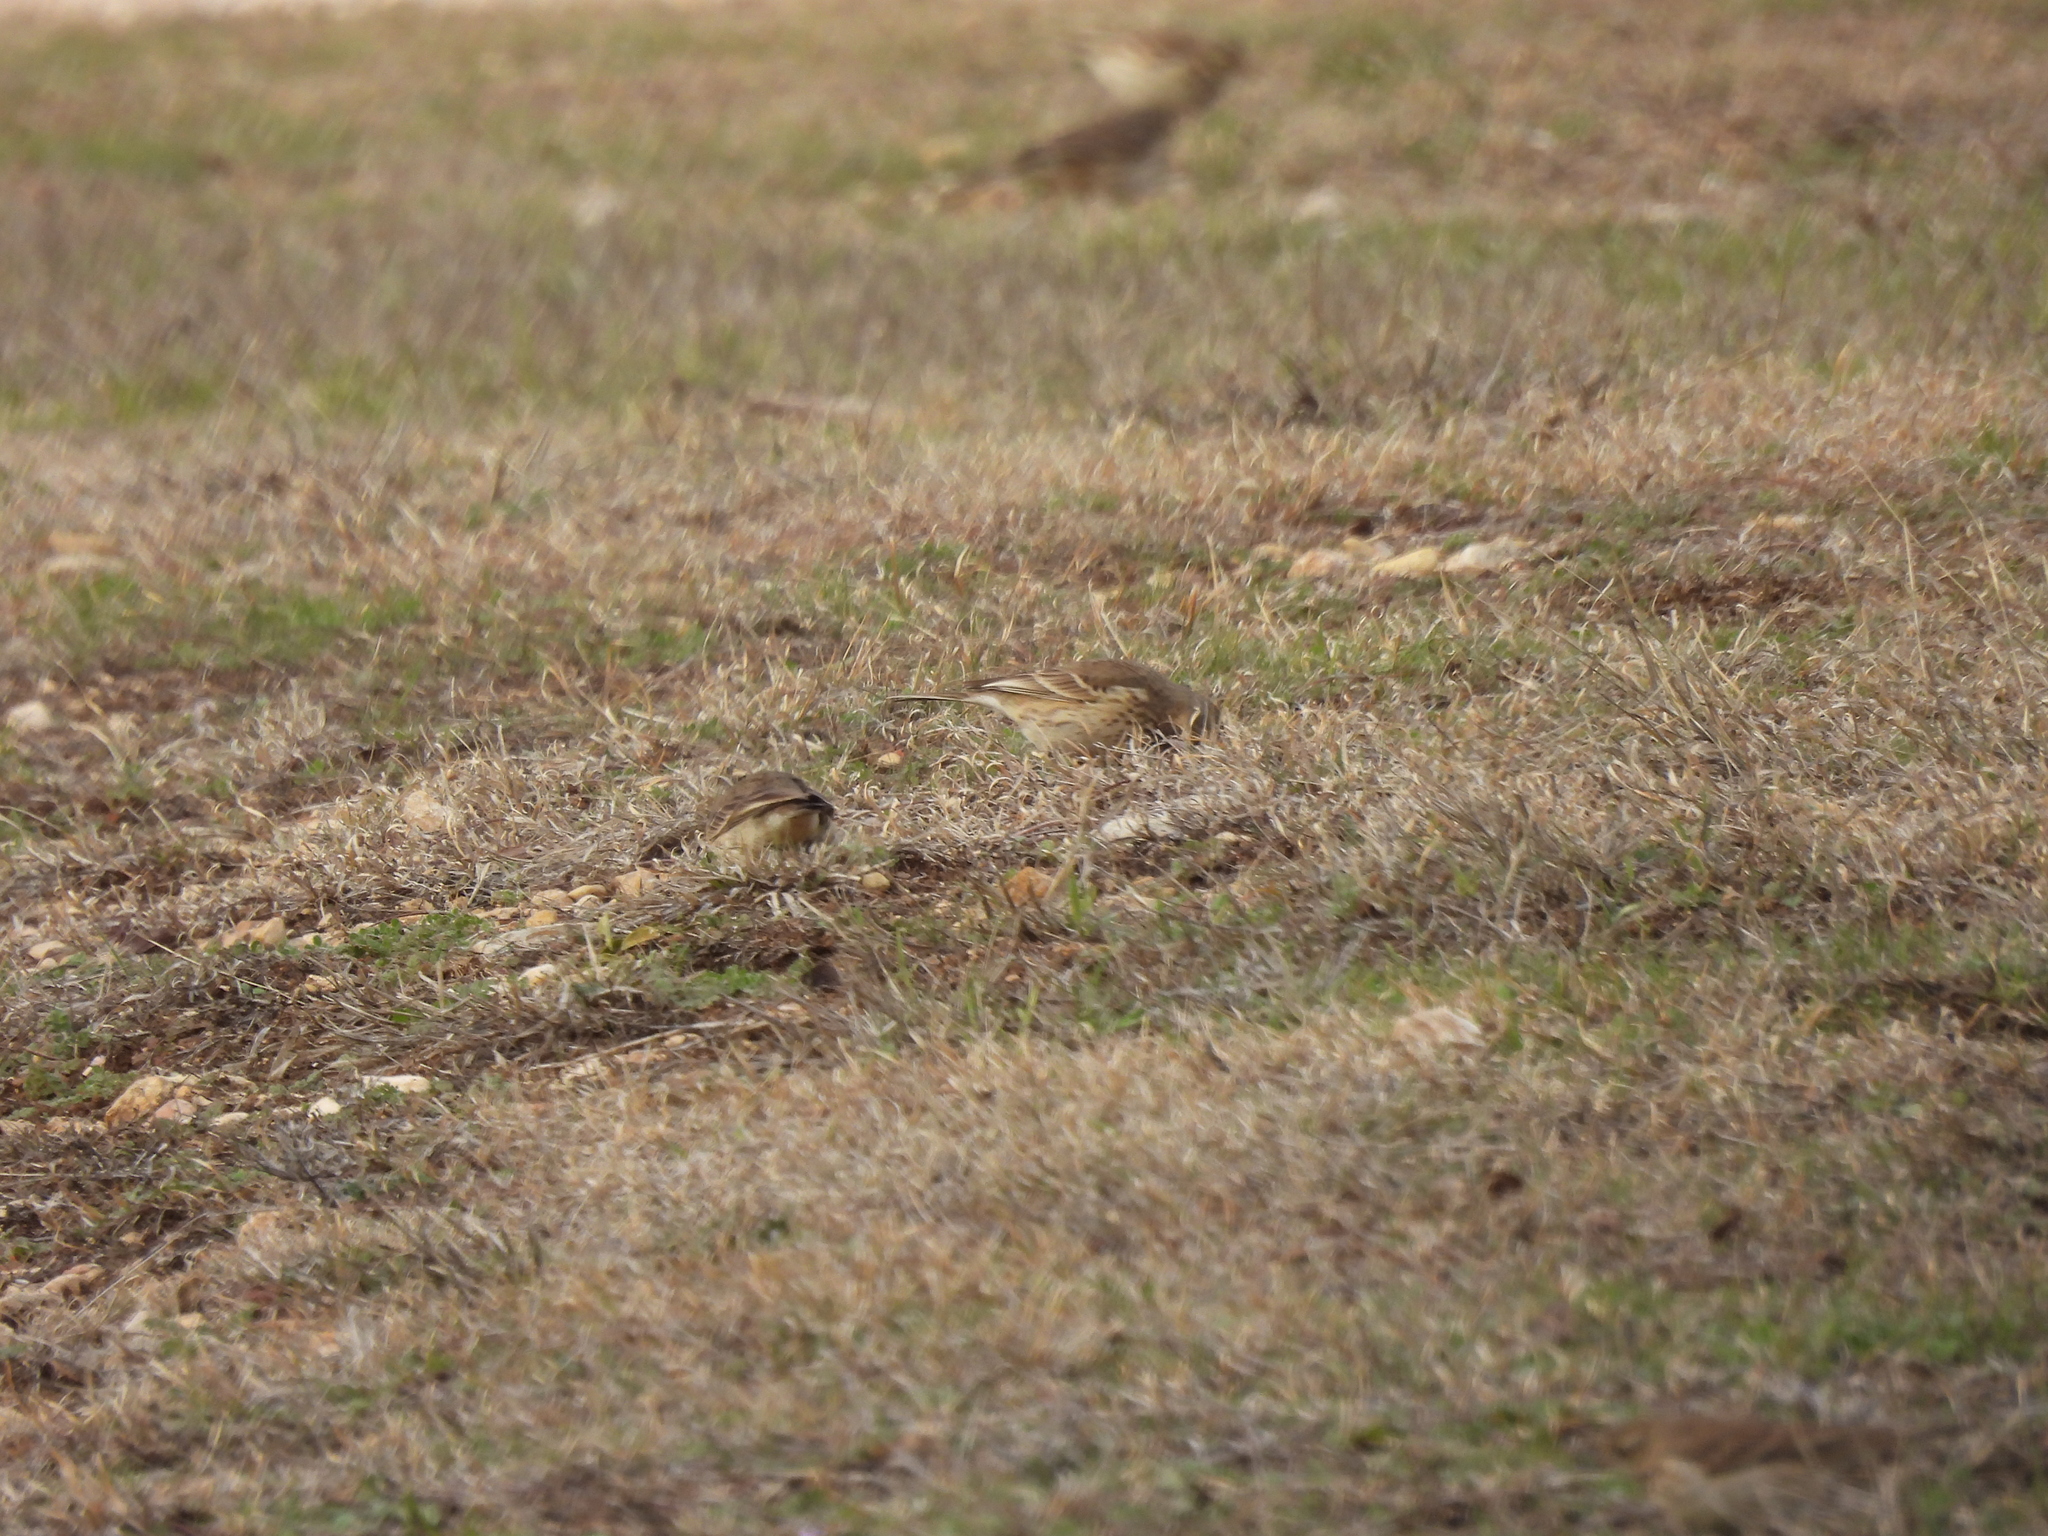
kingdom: Animalia
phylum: Chordata
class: Aves
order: Passeriformes
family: Motacillidae
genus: Anthus
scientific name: Anthus rubescens
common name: Buff-bellied pipit
